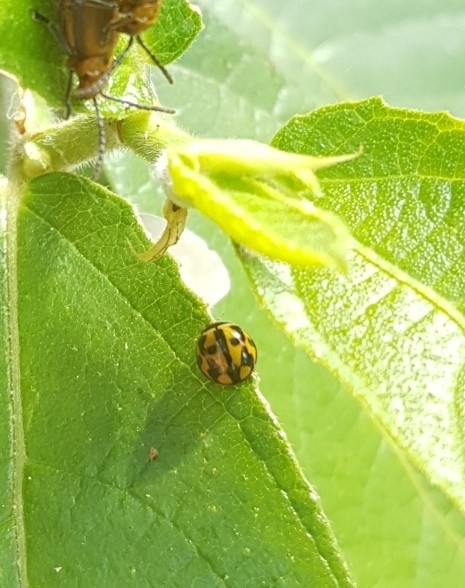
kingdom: Animalia
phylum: Arthropoda
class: Insecta
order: Coleoptera
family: Coccinellidae
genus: Coelophora
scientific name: Coelophora inaequalis
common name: Common australian lady beetle
